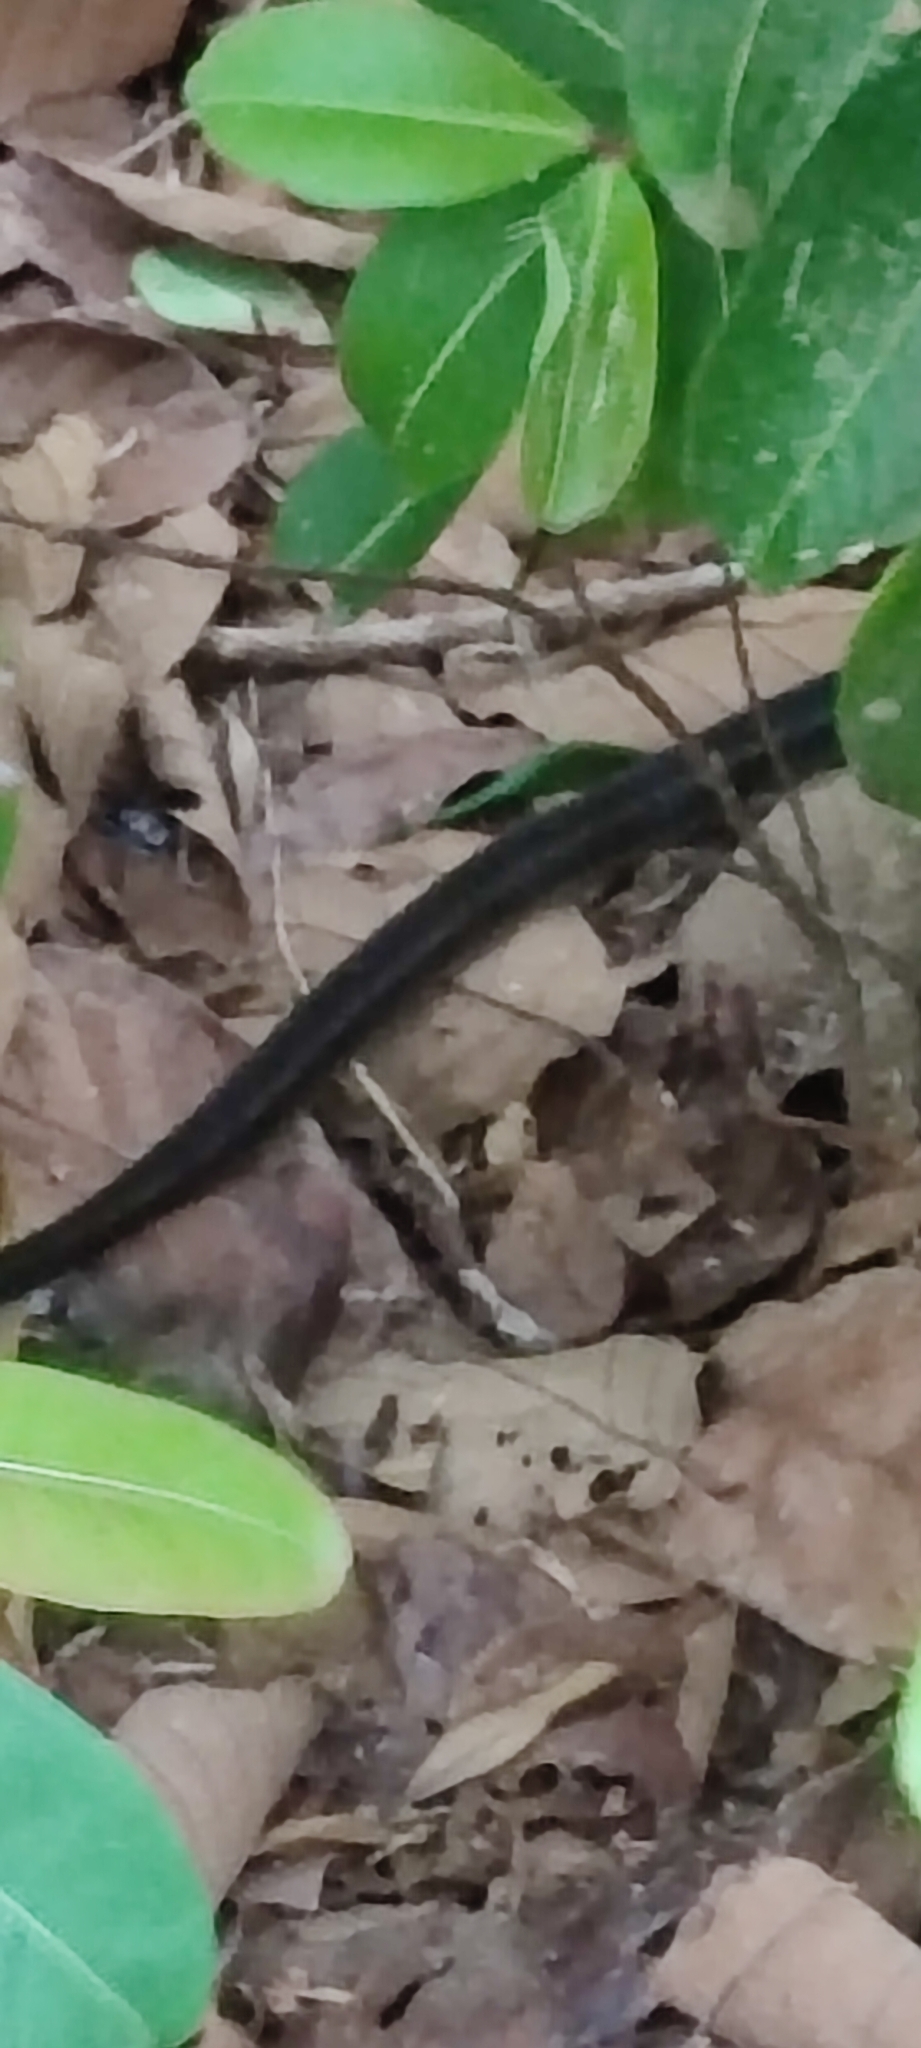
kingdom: Animalia
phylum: Chordata
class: Squamata
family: Colubridae
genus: Alsophis
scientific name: Alsophis manselli
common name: Montserrat racer
